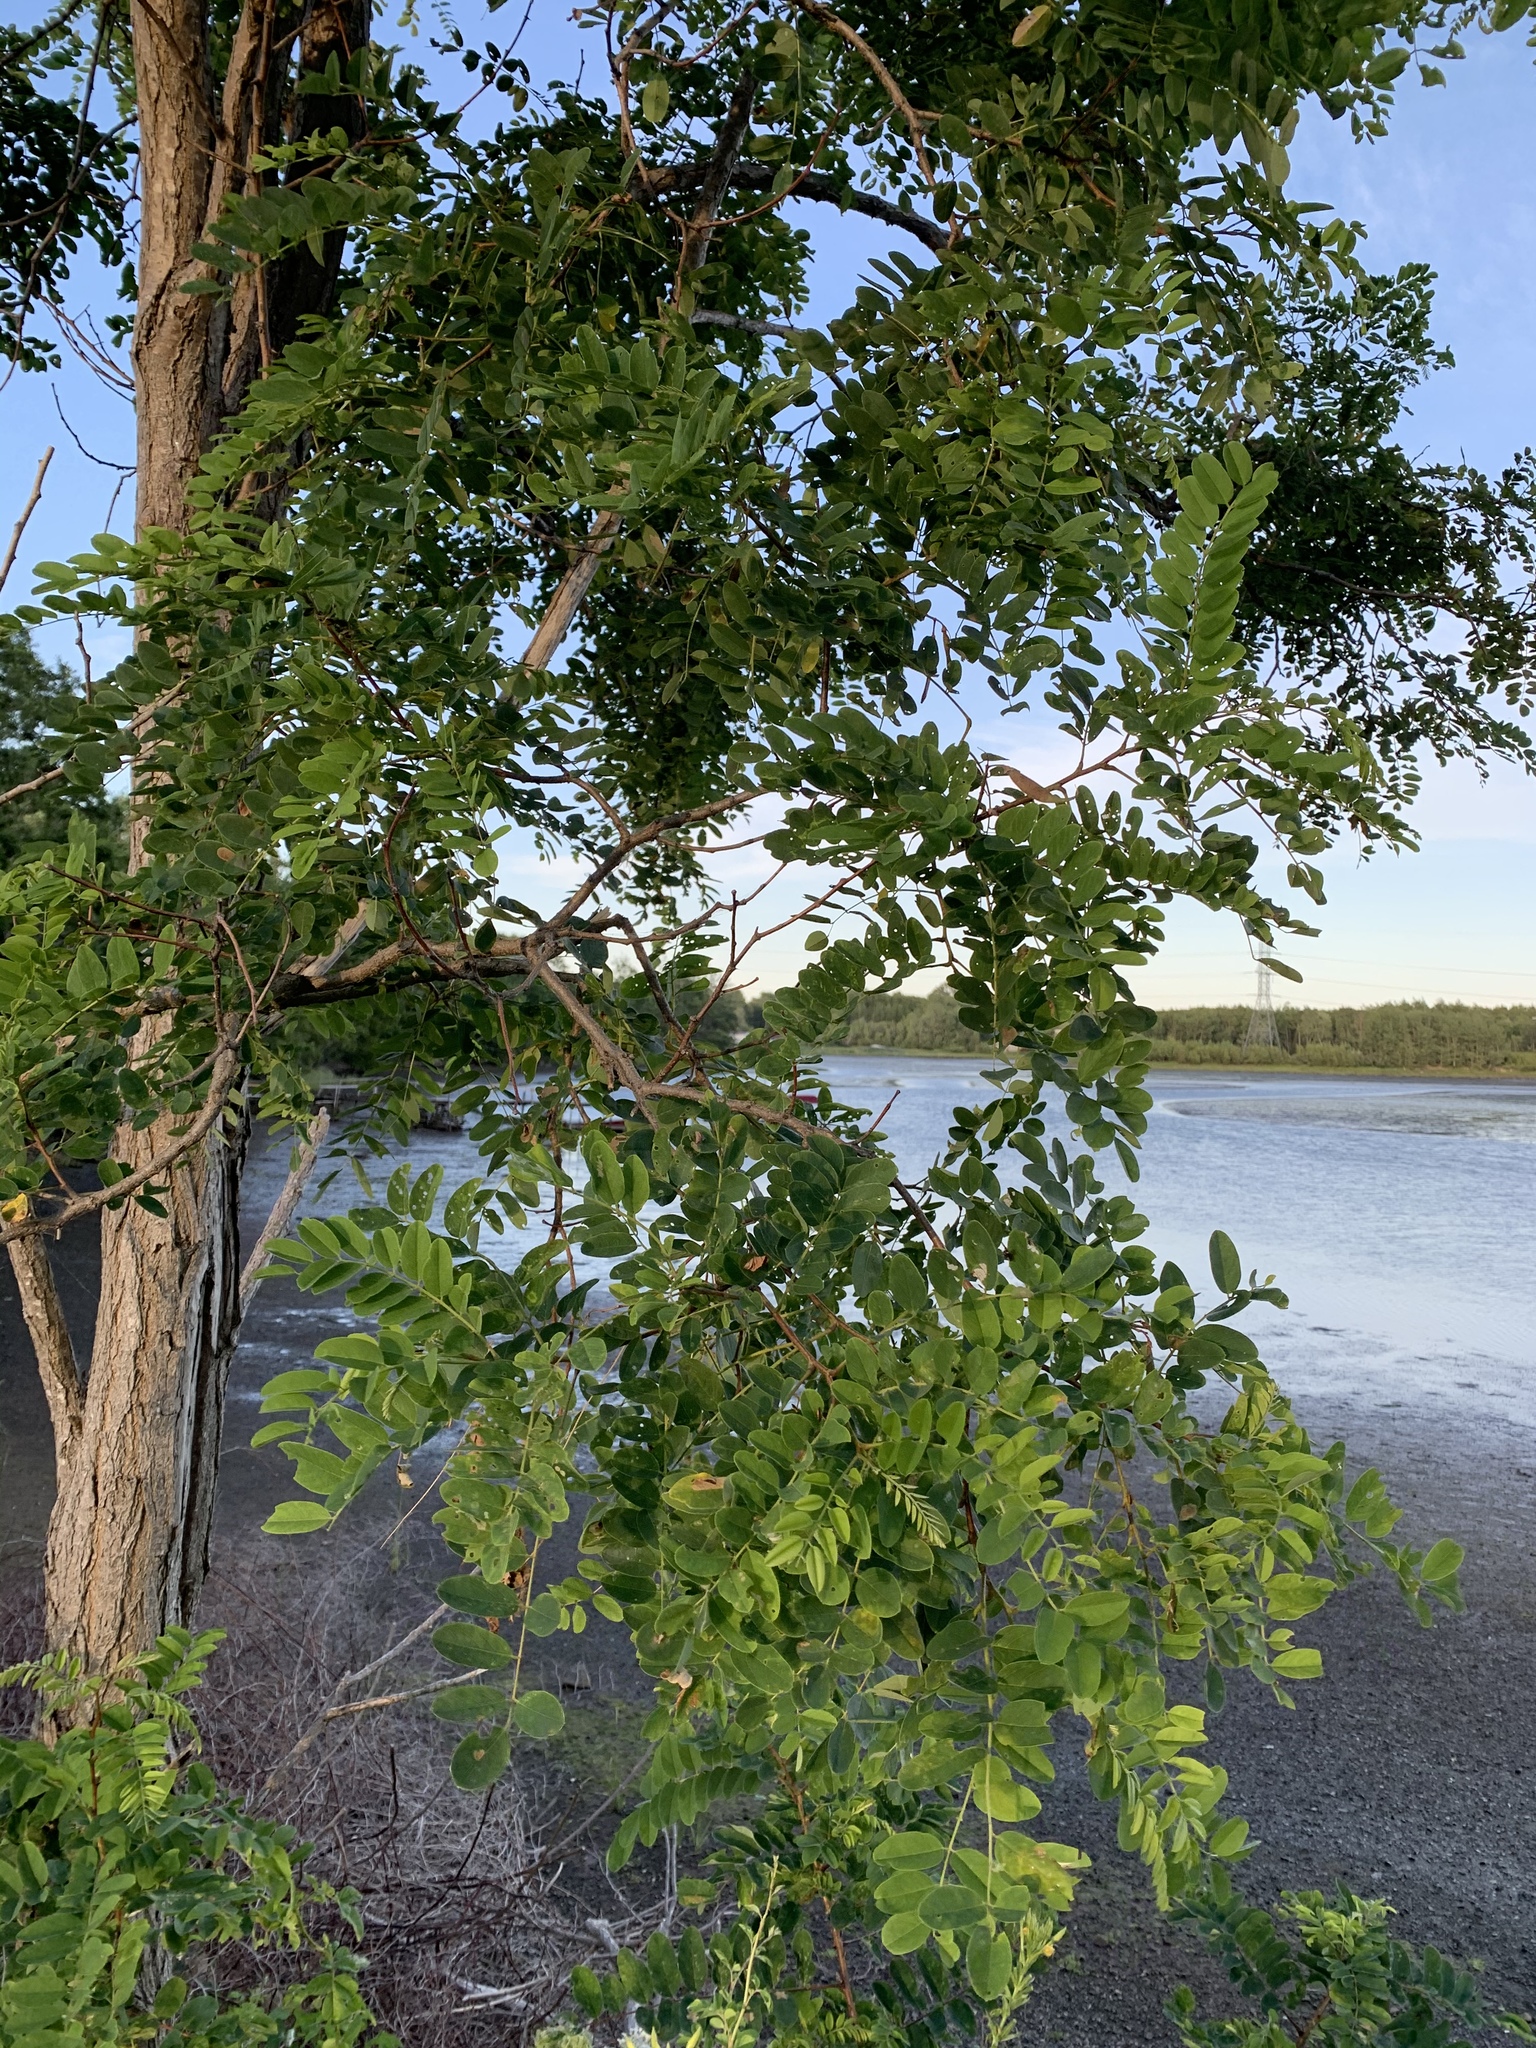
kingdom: Plantae
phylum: Tracheophyta
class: Magnoliopsida
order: Fabales
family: Fabaceae
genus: Robinia
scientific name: Robinia pseudoacacia
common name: Black locust
